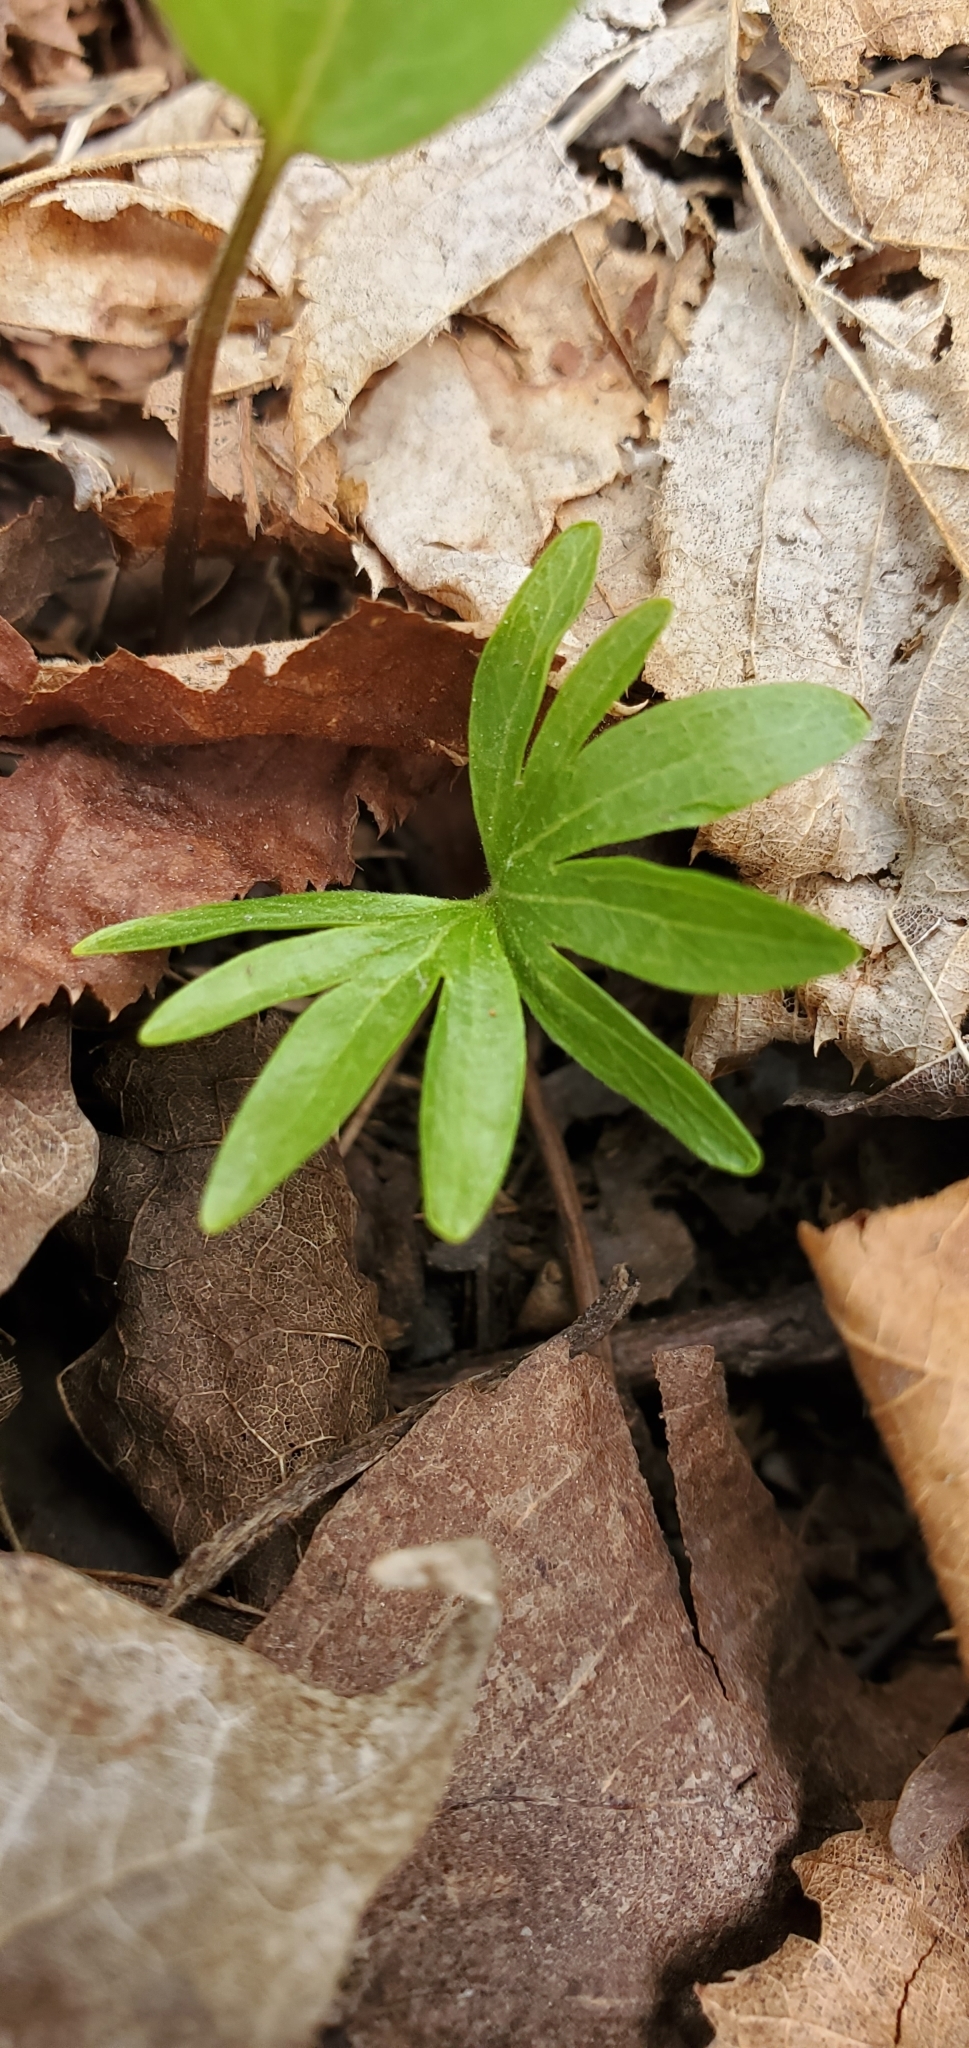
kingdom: Plantae
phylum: Tracheophyta
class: Magnoliopsida
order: Malvales
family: Malvaceae
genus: Tilia
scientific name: Tilia americana
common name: Basswood
